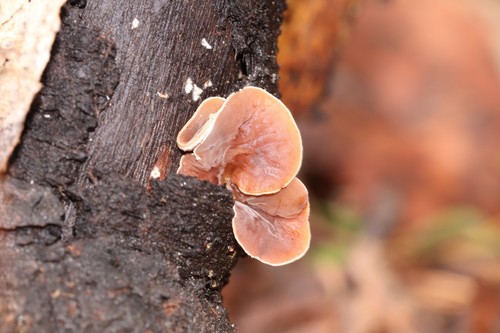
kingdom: Fungi
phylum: Basidiomycota
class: Agaricomycetes
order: Agaricales
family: Schizophyllaceae
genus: Schizophyllum
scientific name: Schizophyllum amplum
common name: Poplar bells
